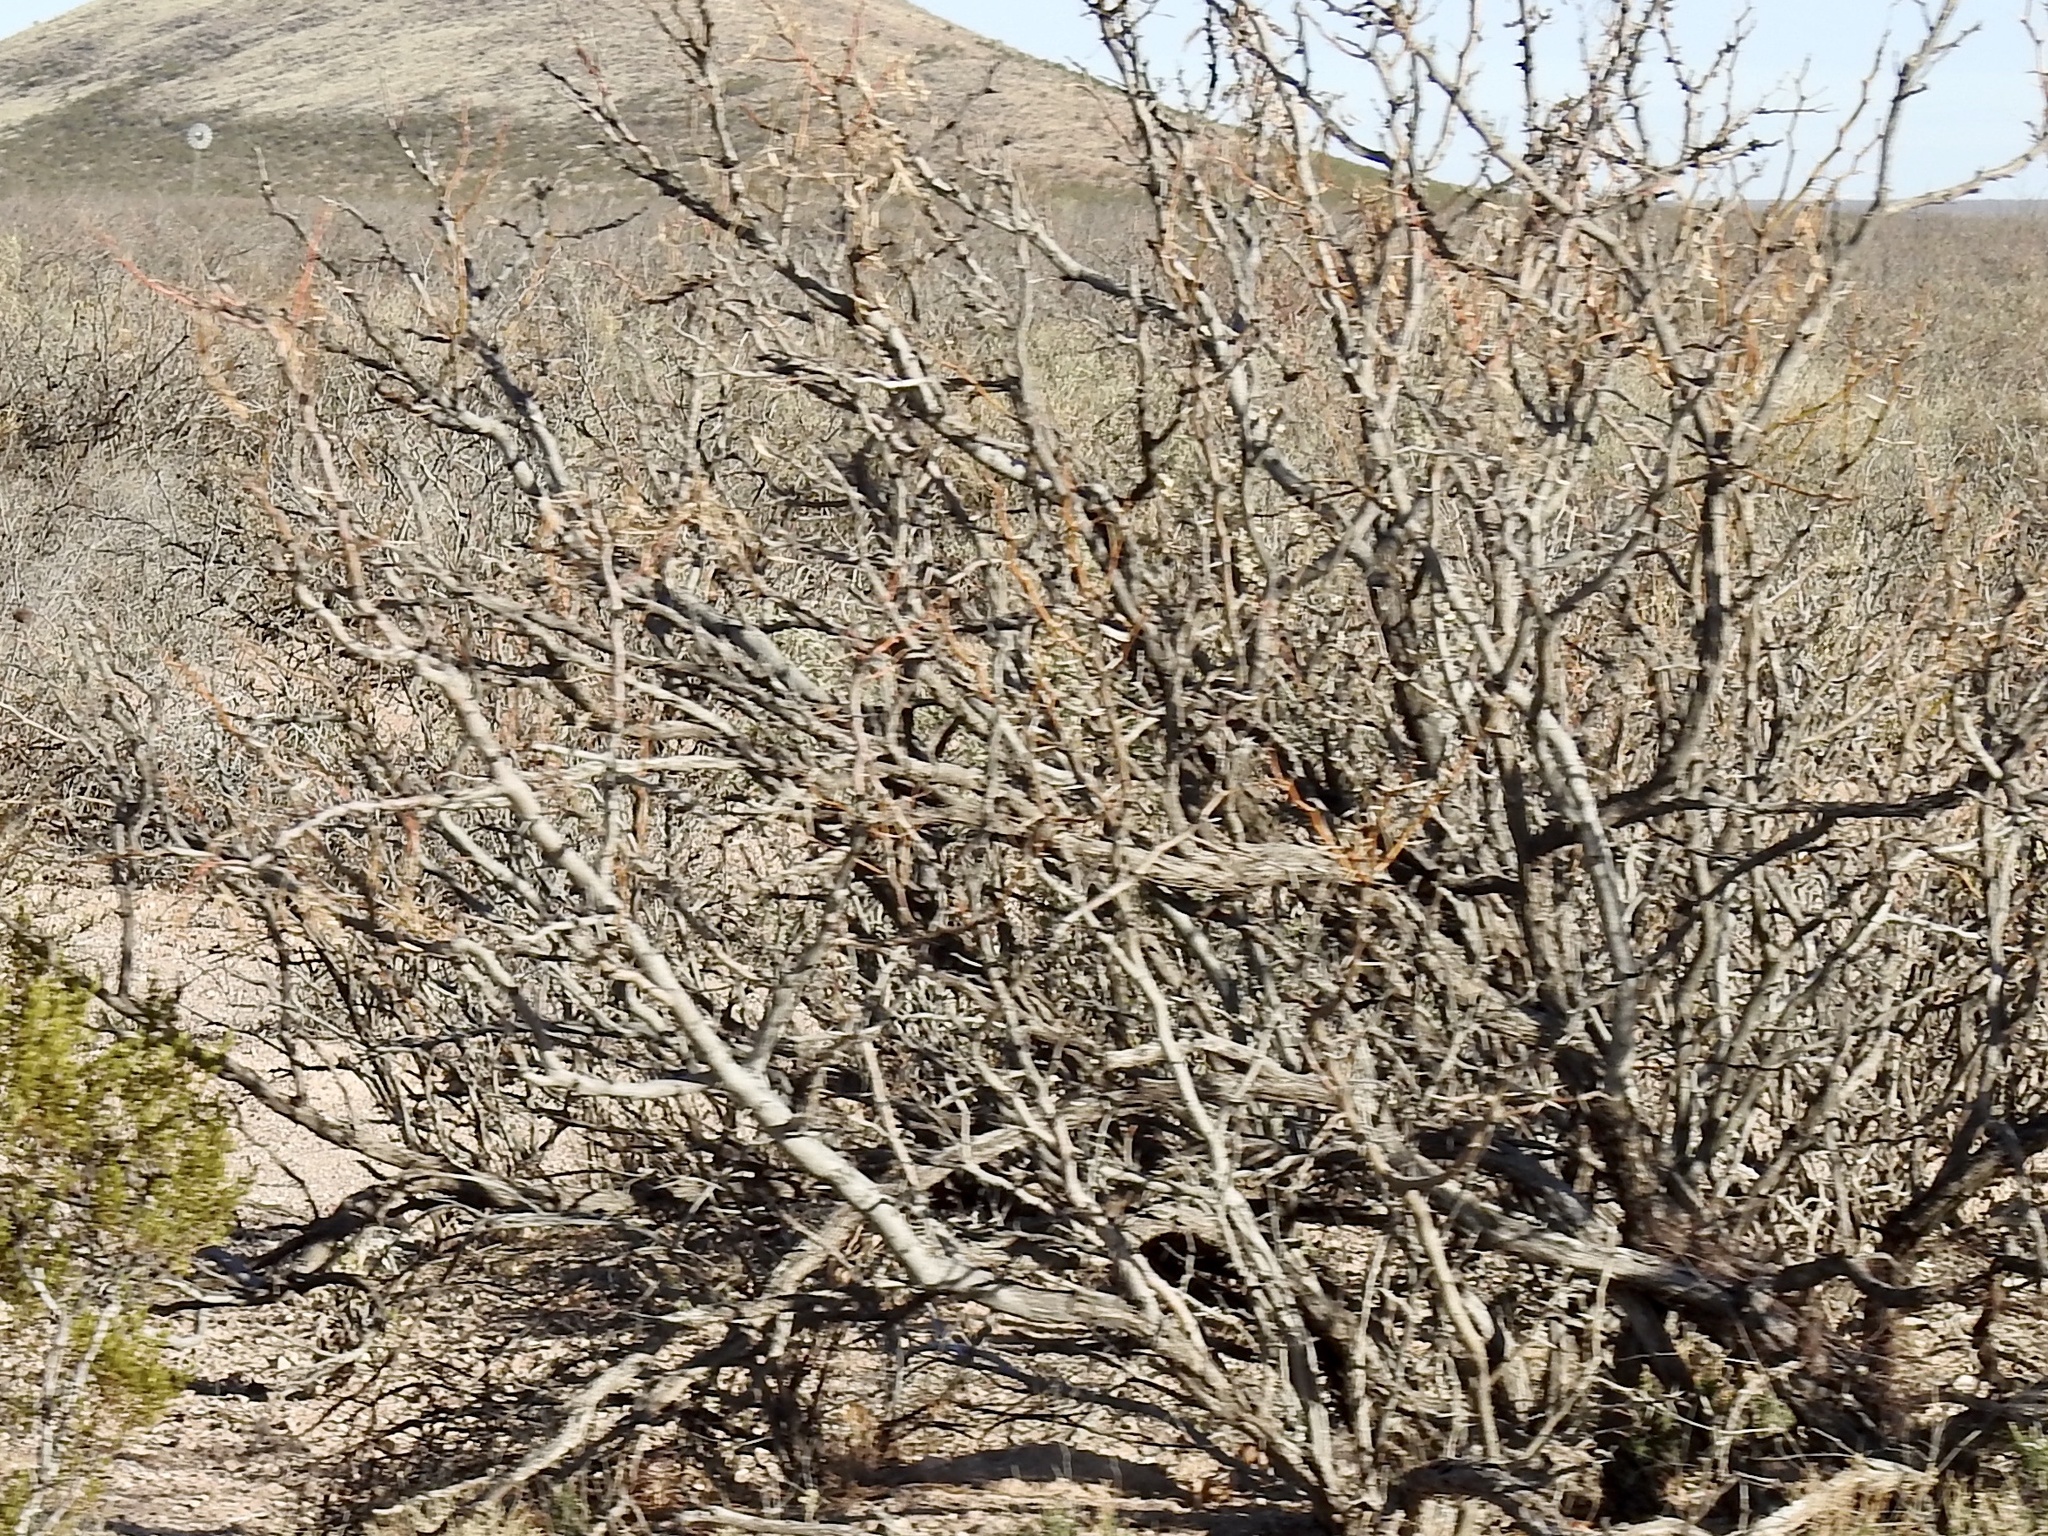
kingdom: Plantae
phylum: Tracheophyta
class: Magnoliopsida
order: Fabales
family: Fabaceae
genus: Prosopis
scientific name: Prosopis glandulosa
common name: Honey mesquite
